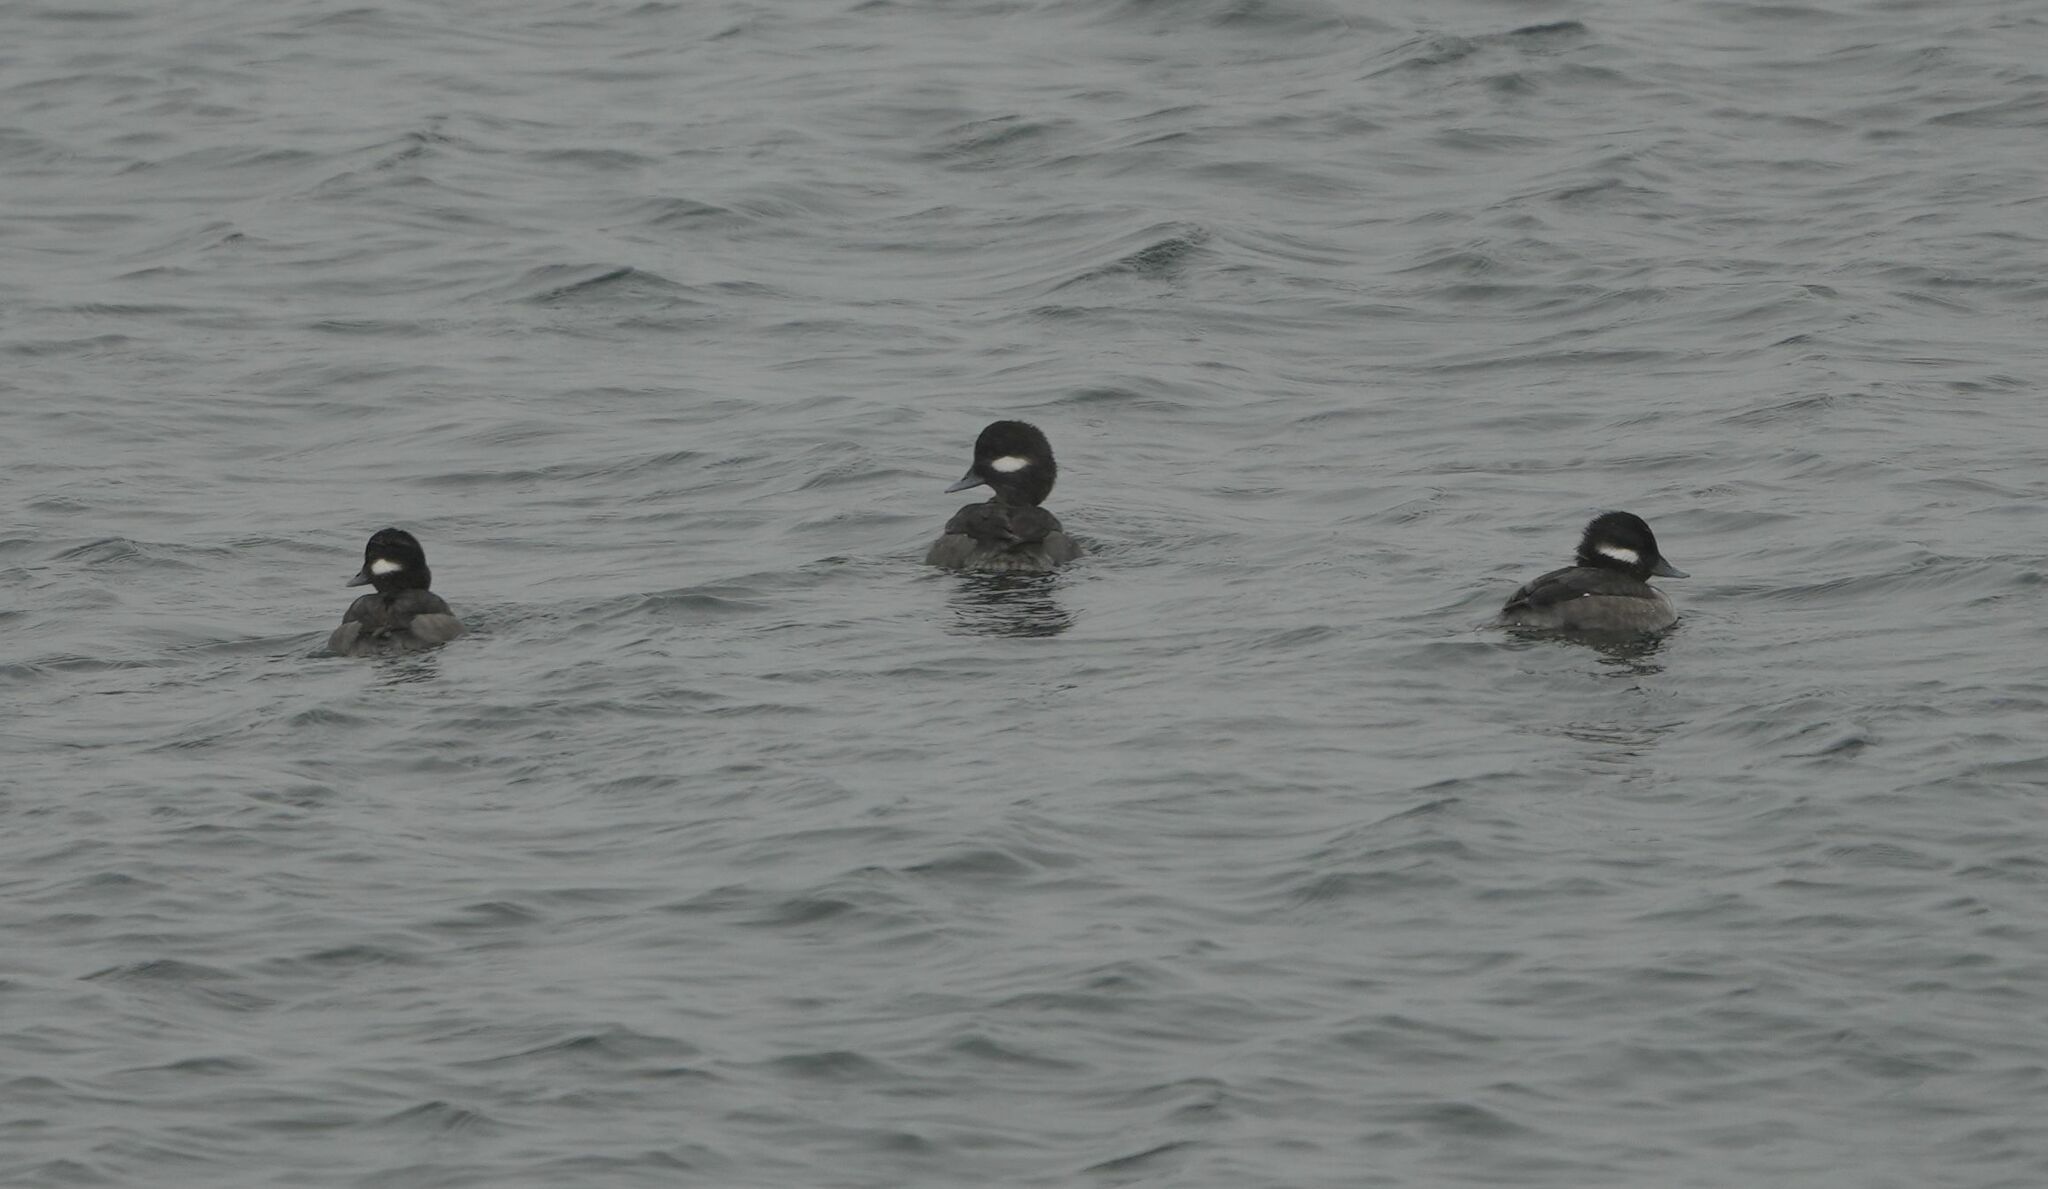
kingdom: Animalia
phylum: Chordata
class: Aves
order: Anseriformes
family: Anatidae
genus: Bucephala
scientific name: Bucephala albeola
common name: Bufflehead
